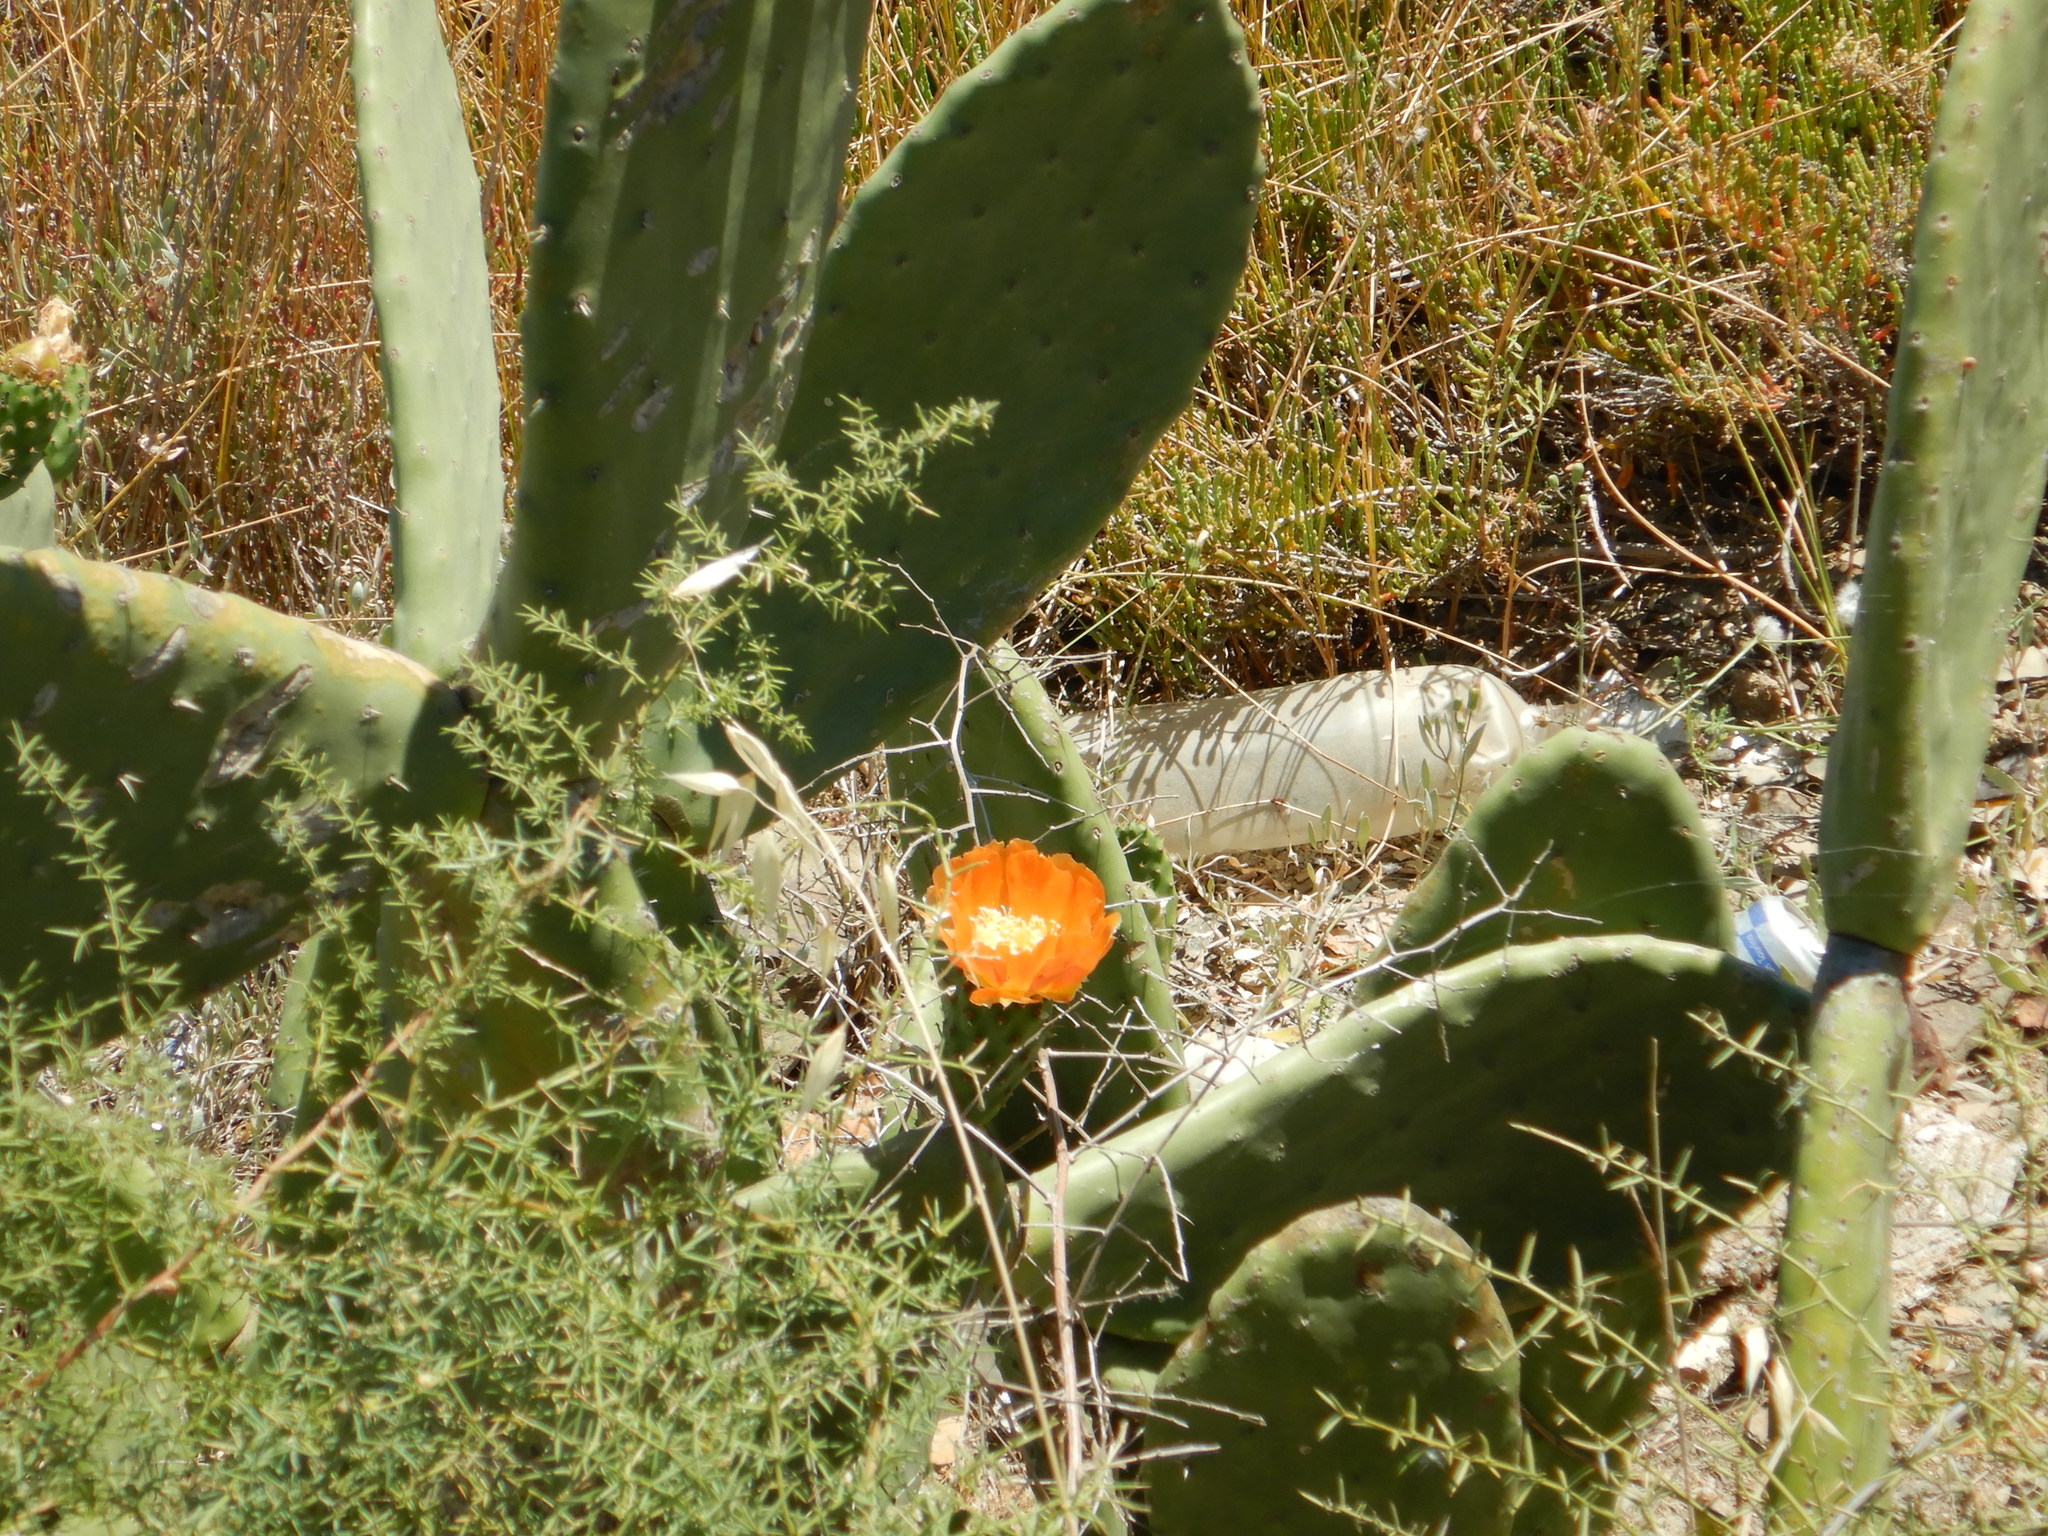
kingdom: Plantae
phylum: Tracheophyta
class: Magnoliopsida
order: Caryophyllales
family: Cactaceae
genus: Opuntia
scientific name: Opuntia ficus-indica
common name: Barbary fig
